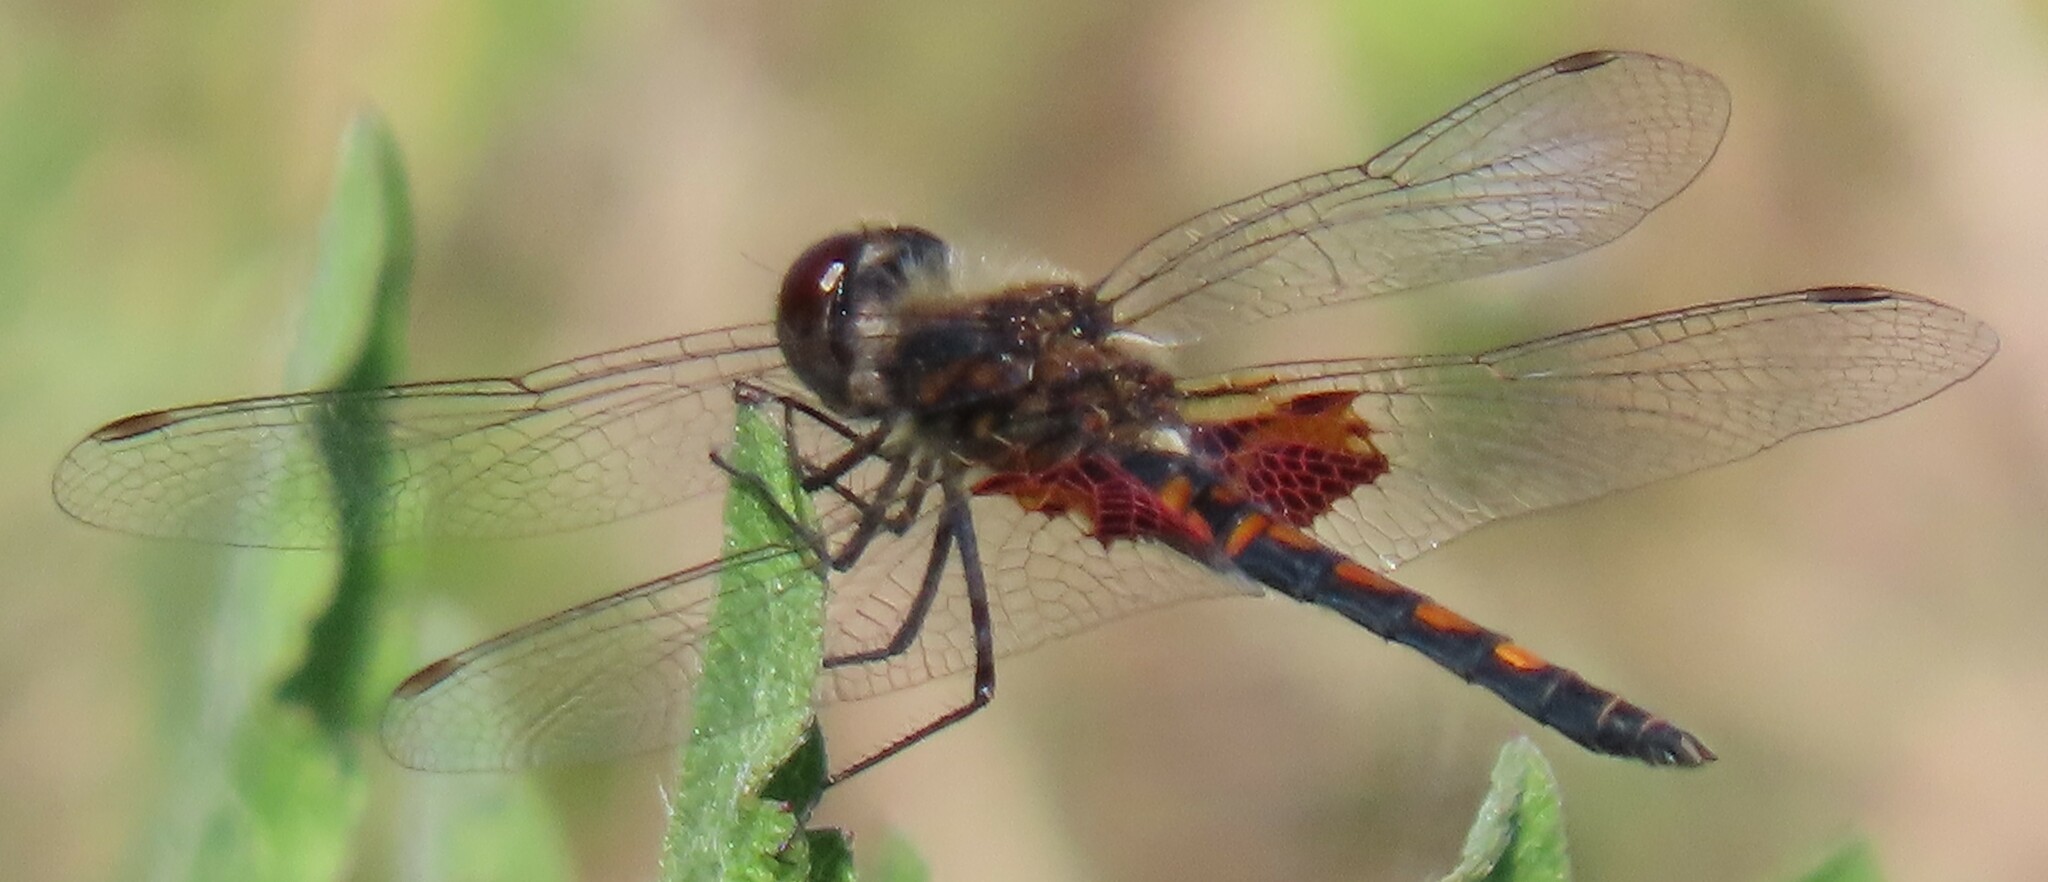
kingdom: Animalia
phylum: Arthropoda
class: Insecta
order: Odonata
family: Libellulidae
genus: Celithemis
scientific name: Celithemis ornata
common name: Ornate pennant
